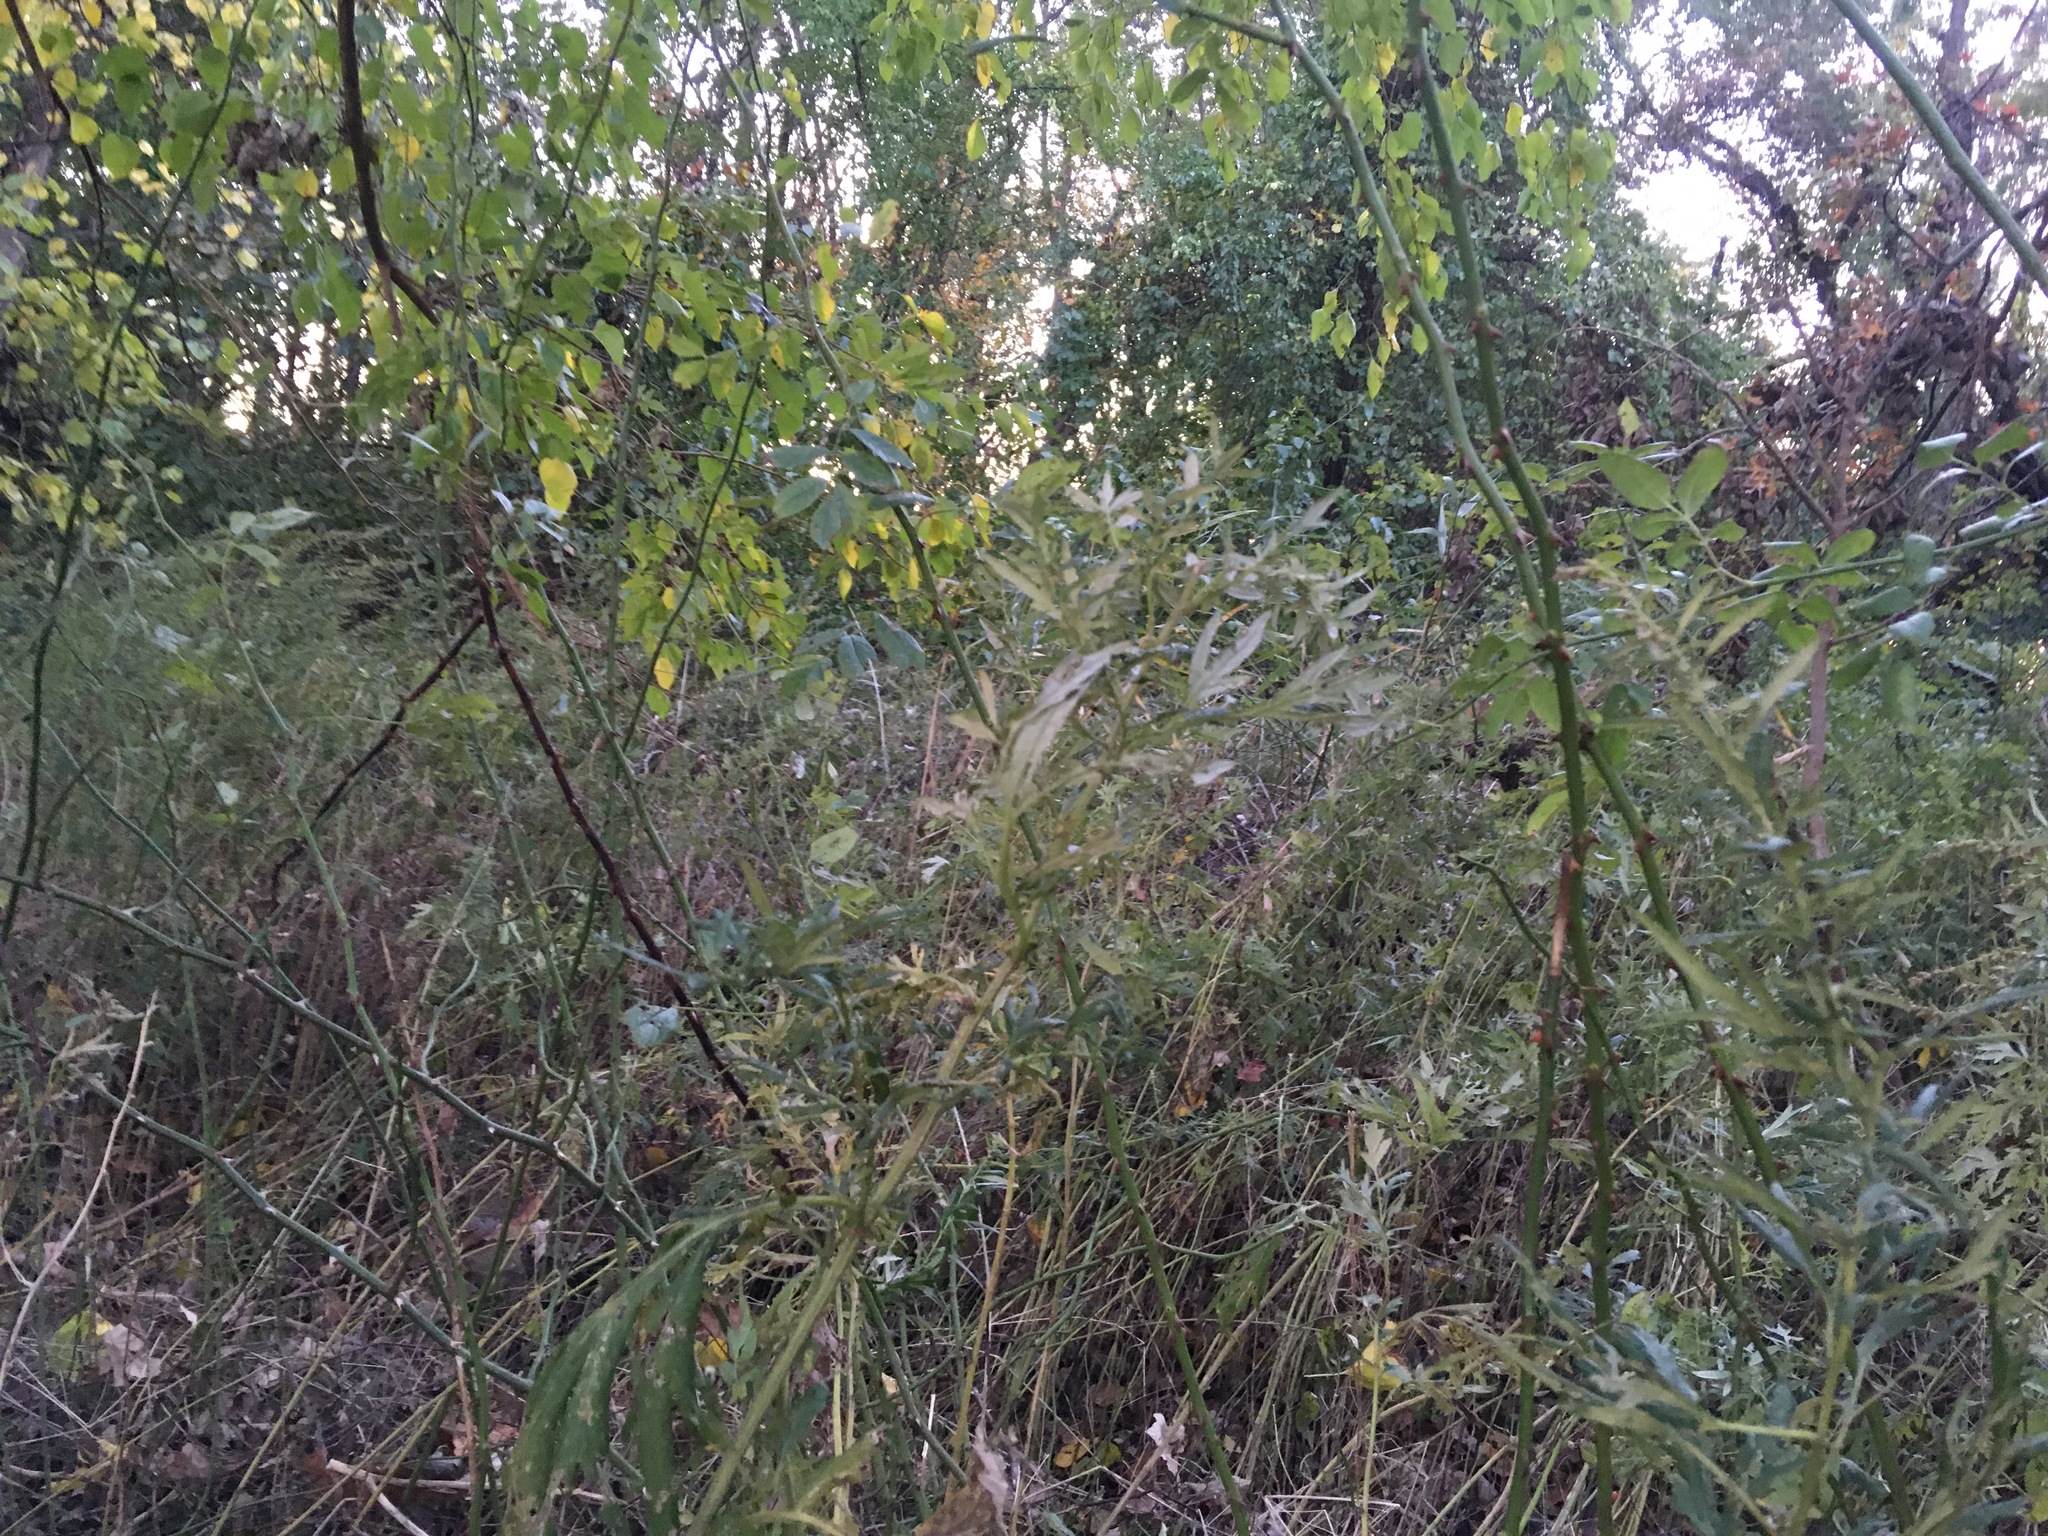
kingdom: Plantae
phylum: Tracheophyta
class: Magnoliopsida
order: Asterales
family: Asteraceae
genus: Artemisia
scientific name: Artemisia vulgaris
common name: Mugwort
